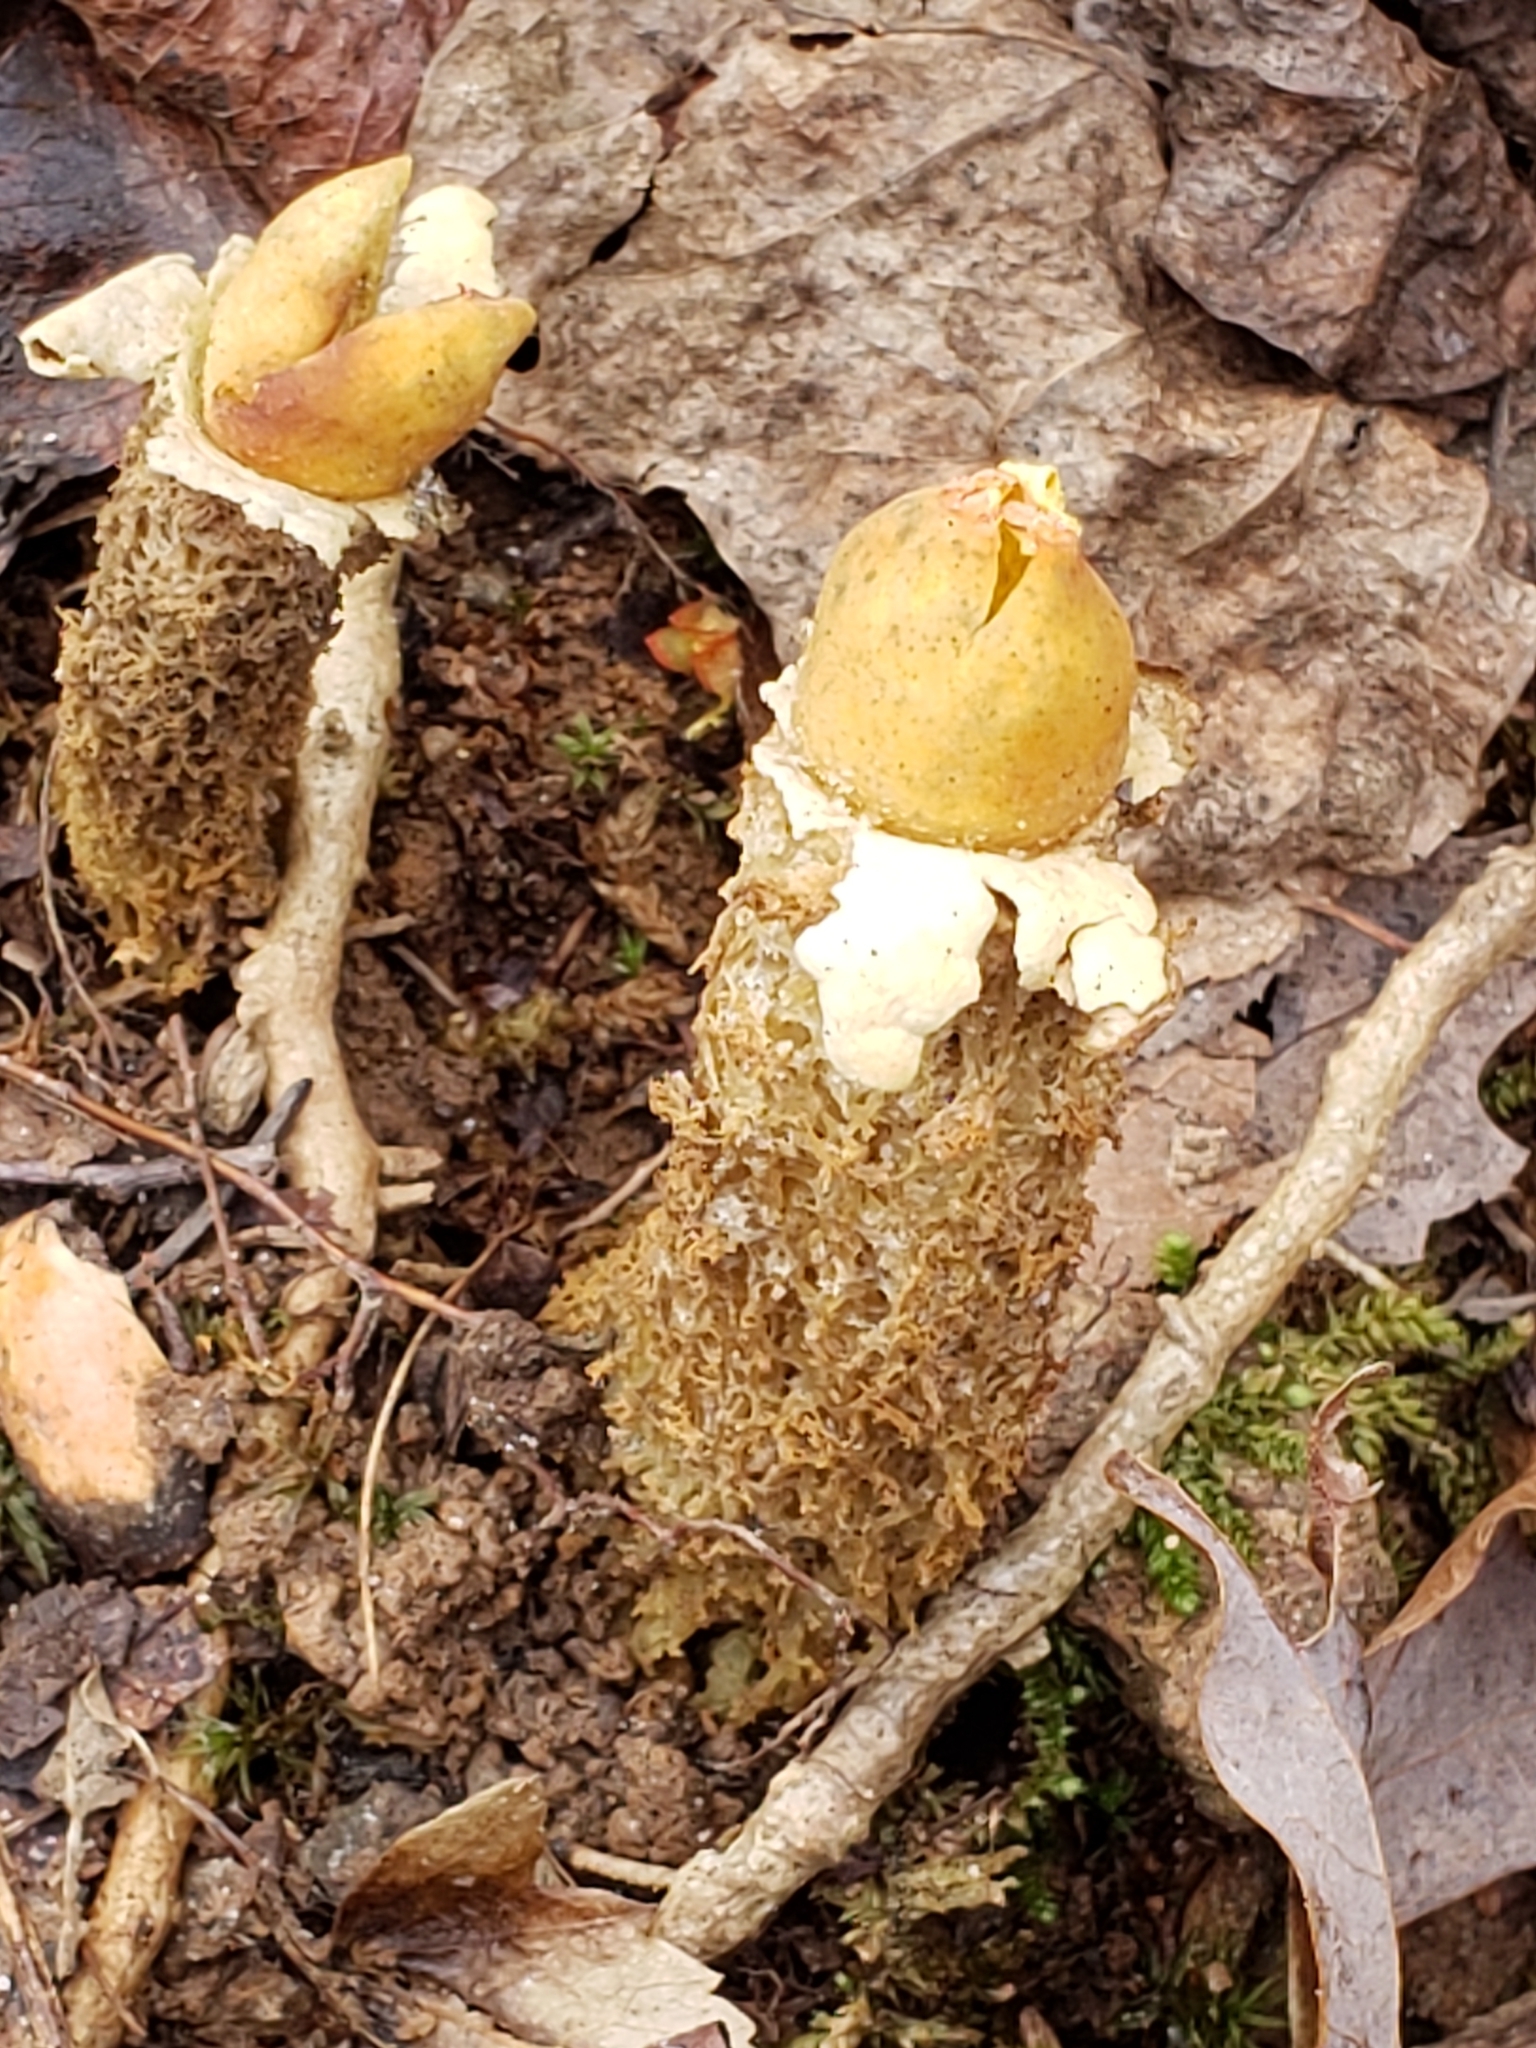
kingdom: Fungi
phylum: Basidiomycota
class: Agaricomycetes
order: Boletales
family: Calostomataceae
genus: Calostoma
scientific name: Calostoma lutescens
